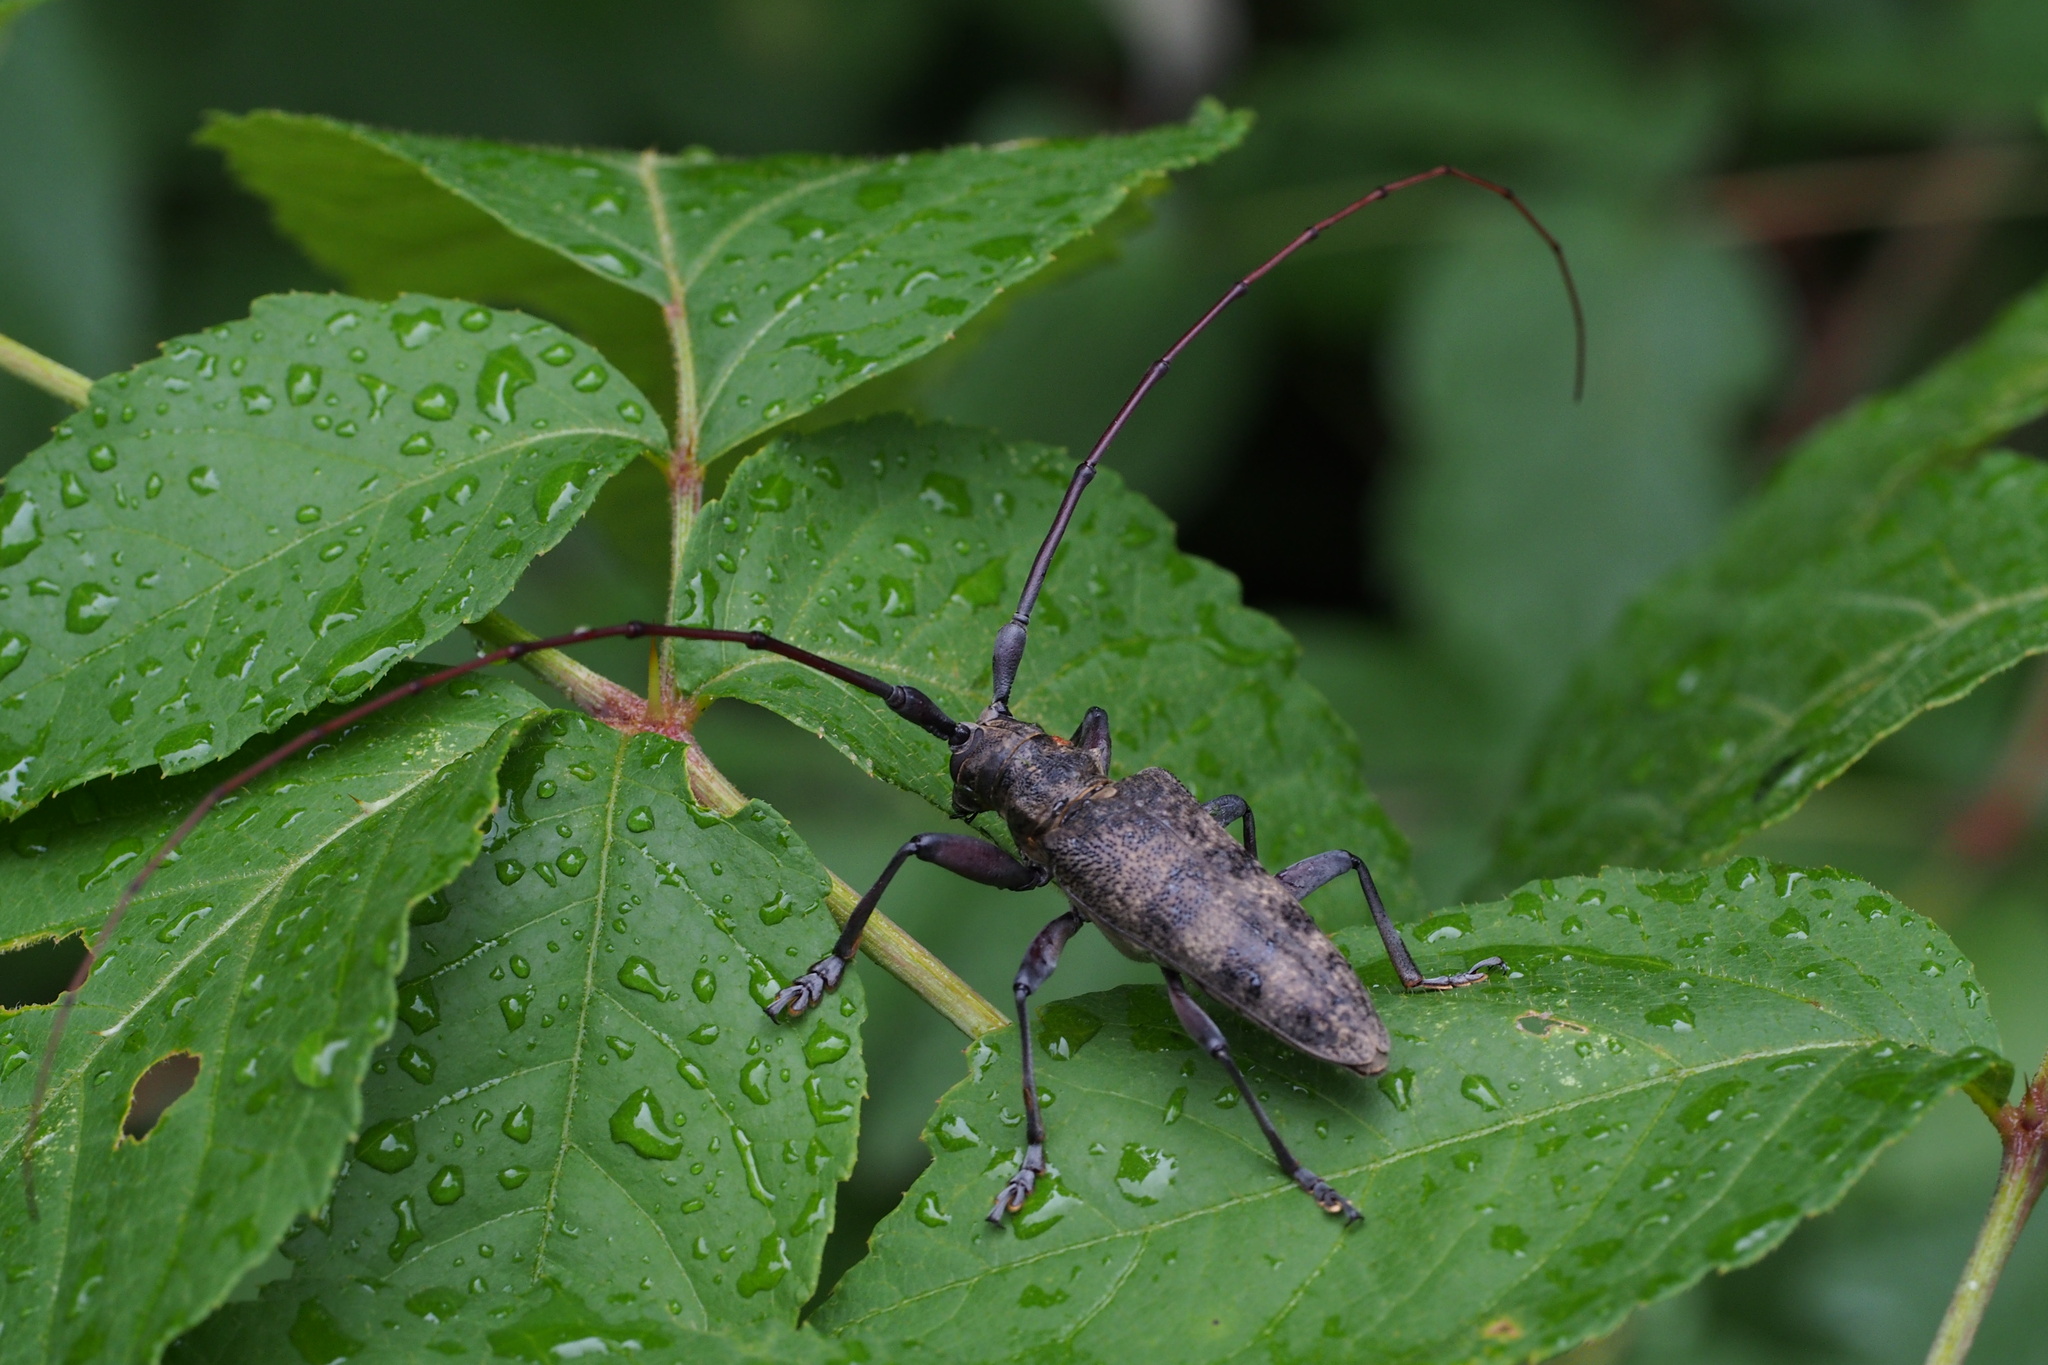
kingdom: Animalia
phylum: Arthropoda
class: Insecta
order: Coleoptera
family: Cerambycidae
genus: Acalolepta
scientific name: Acalolepta luxuriosa
